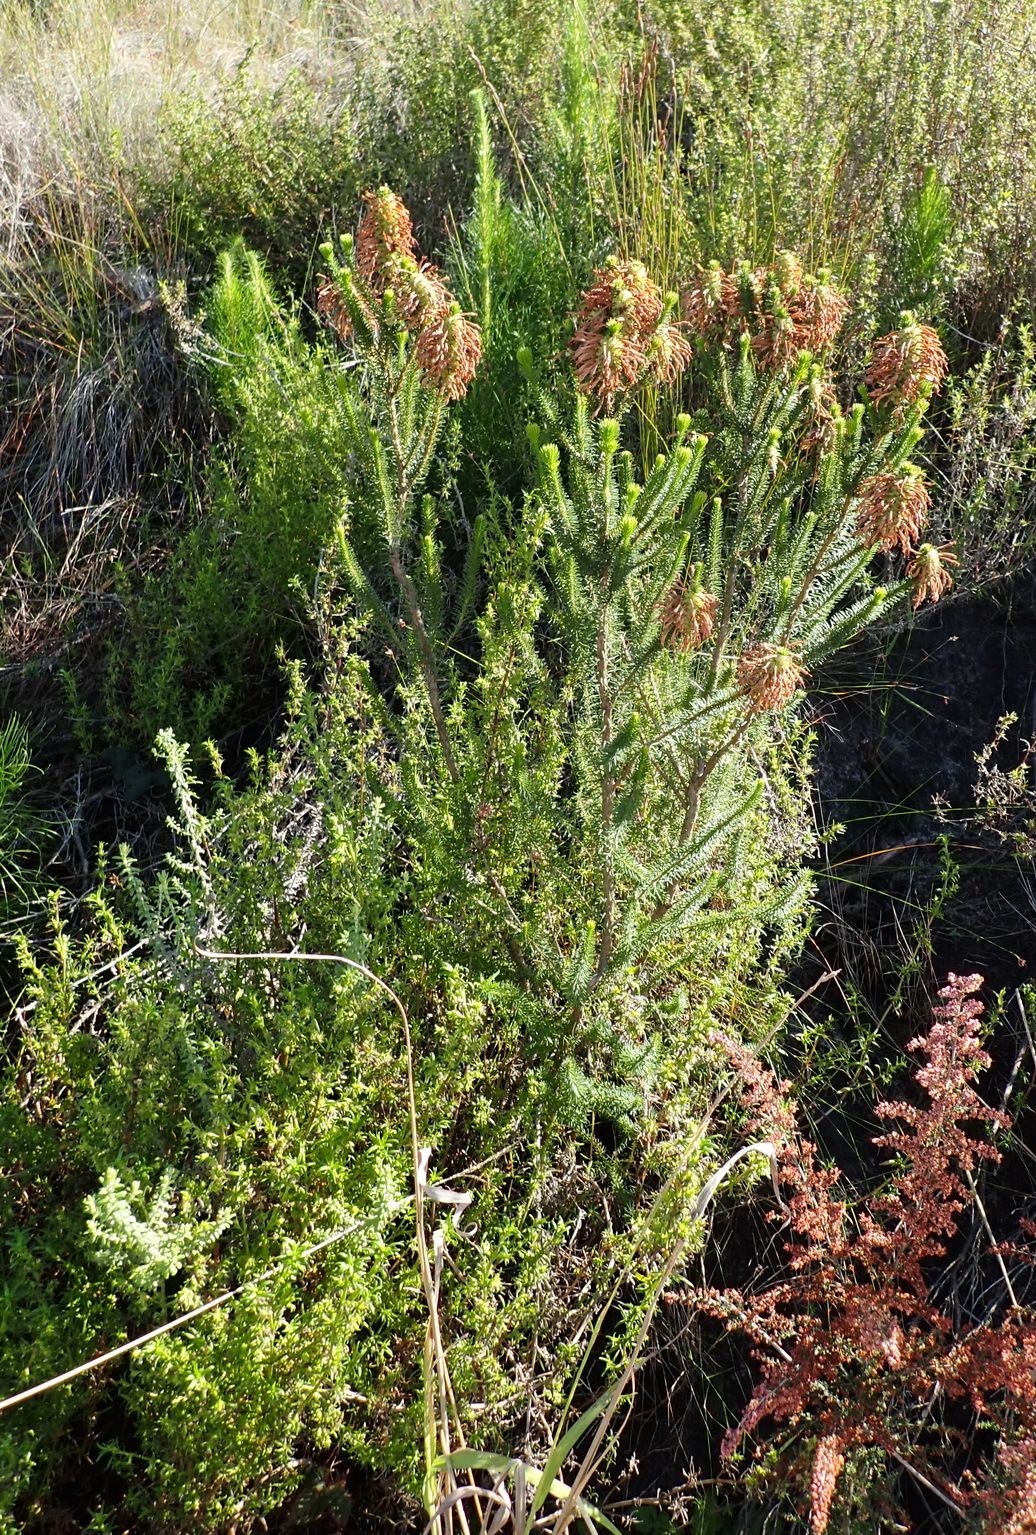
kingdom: Plantae
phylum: Tracheophyta
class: Magnoliopsida
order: Ericales
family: Ericaceae
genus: Erica
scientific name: Erica sessiliflora
